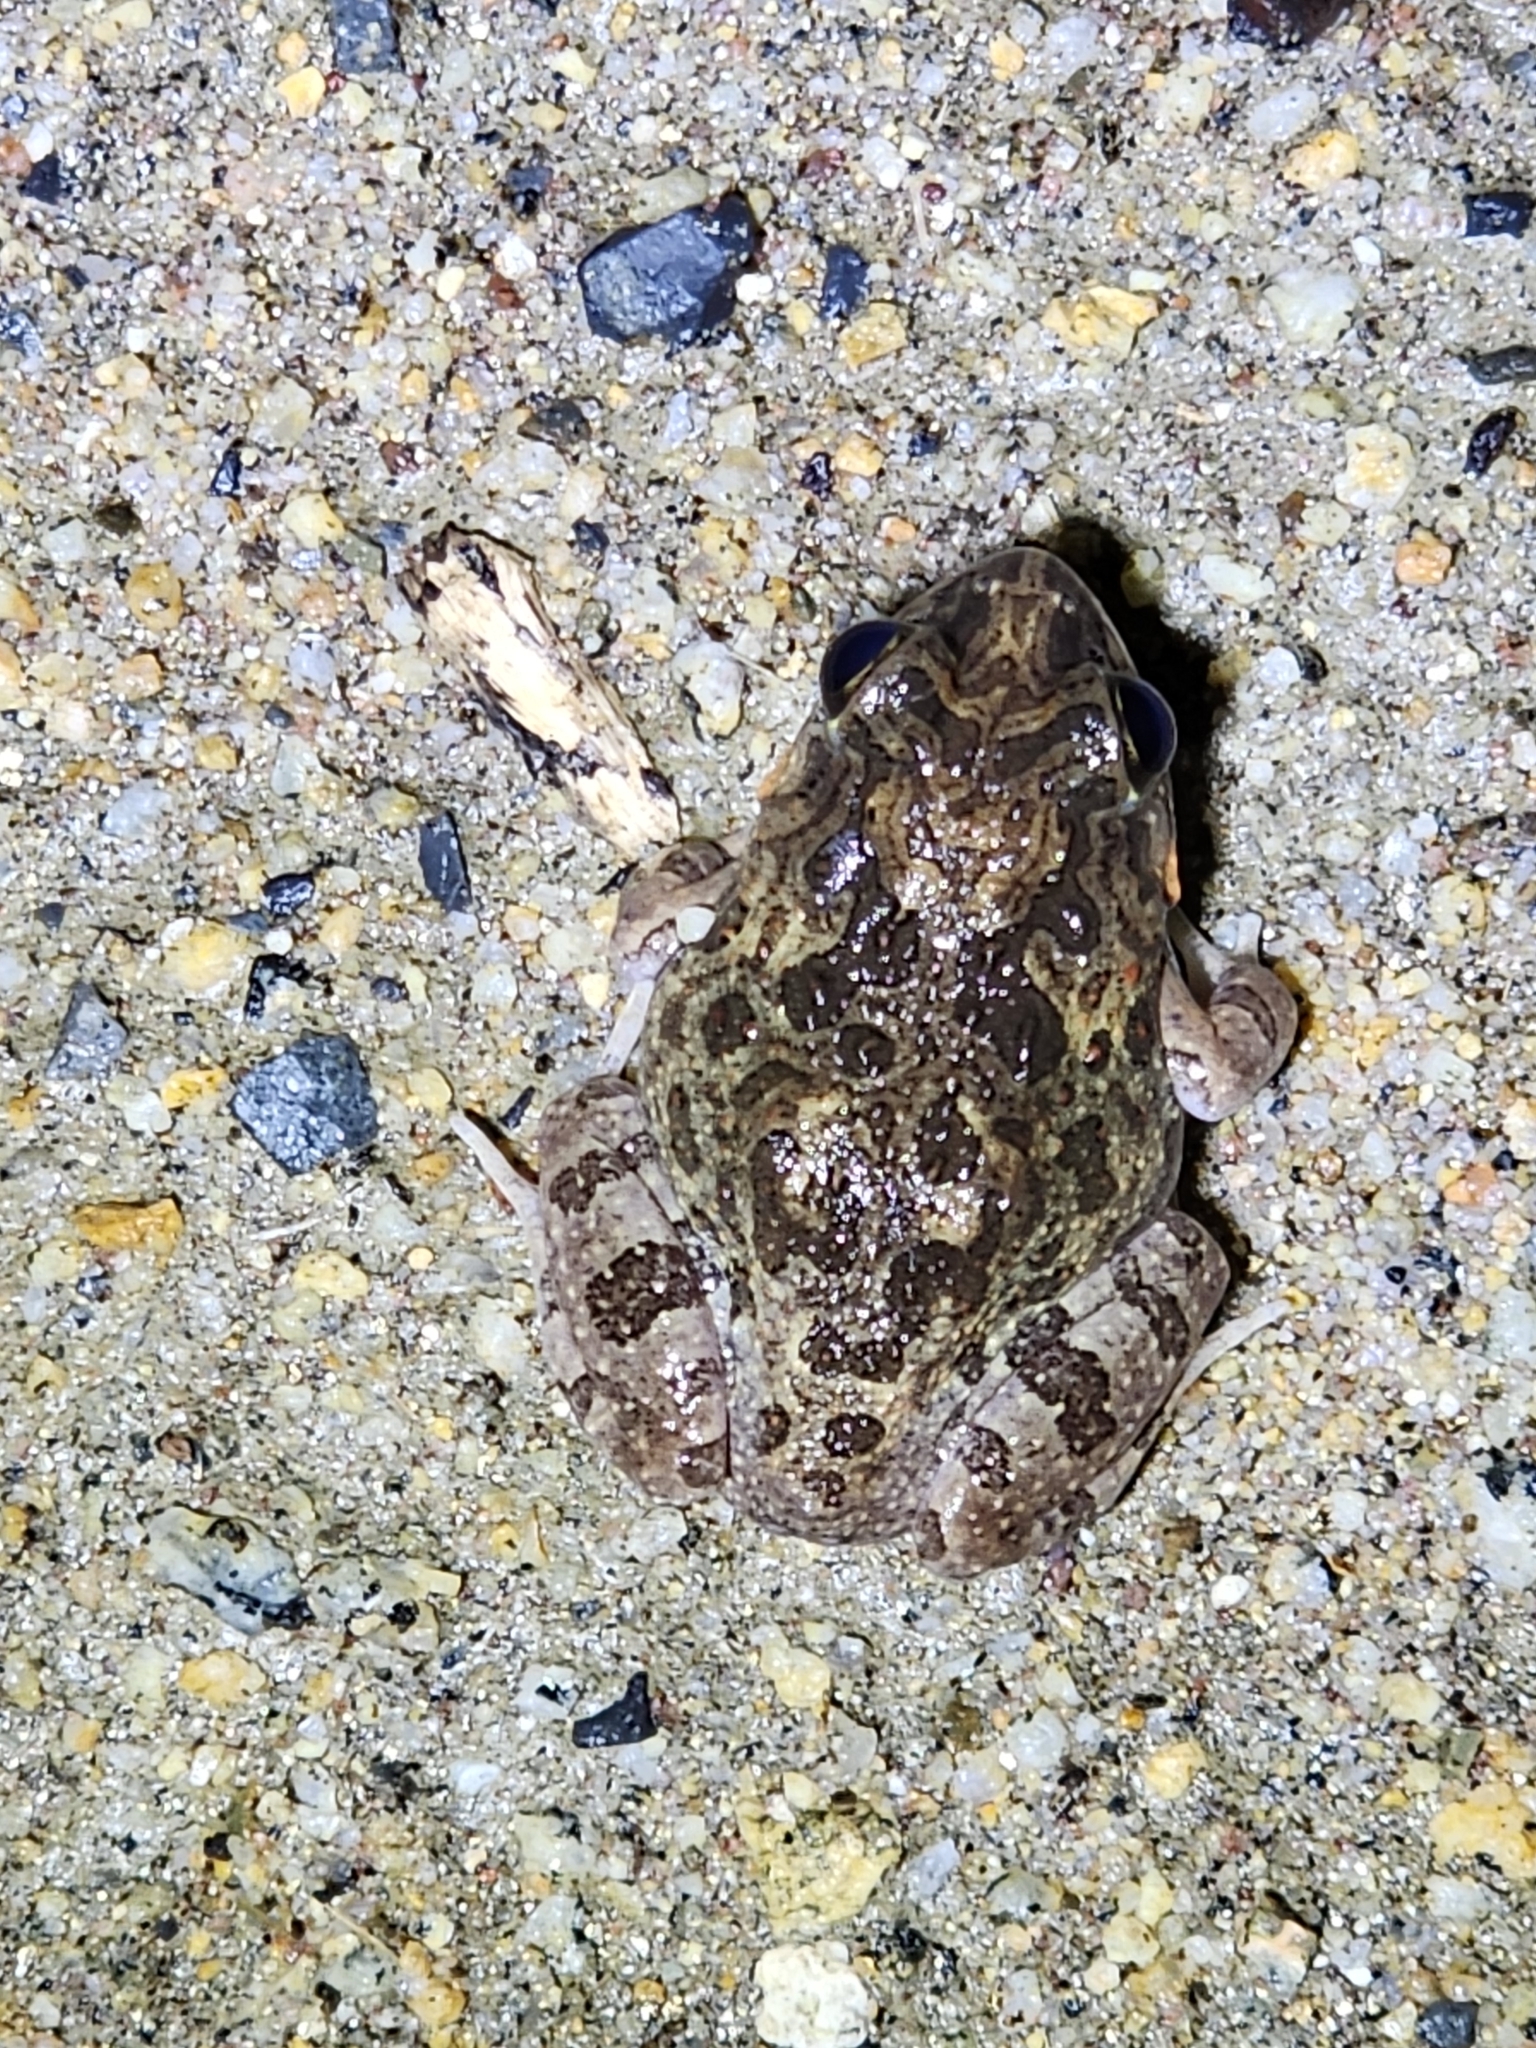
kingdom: Animalia
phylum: Chordata
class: Amphibia
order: Anura
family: Limnodynastidae
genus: Platyplectrum
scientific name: Platyplectrum ornatum
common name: Ornate burrowing frog
